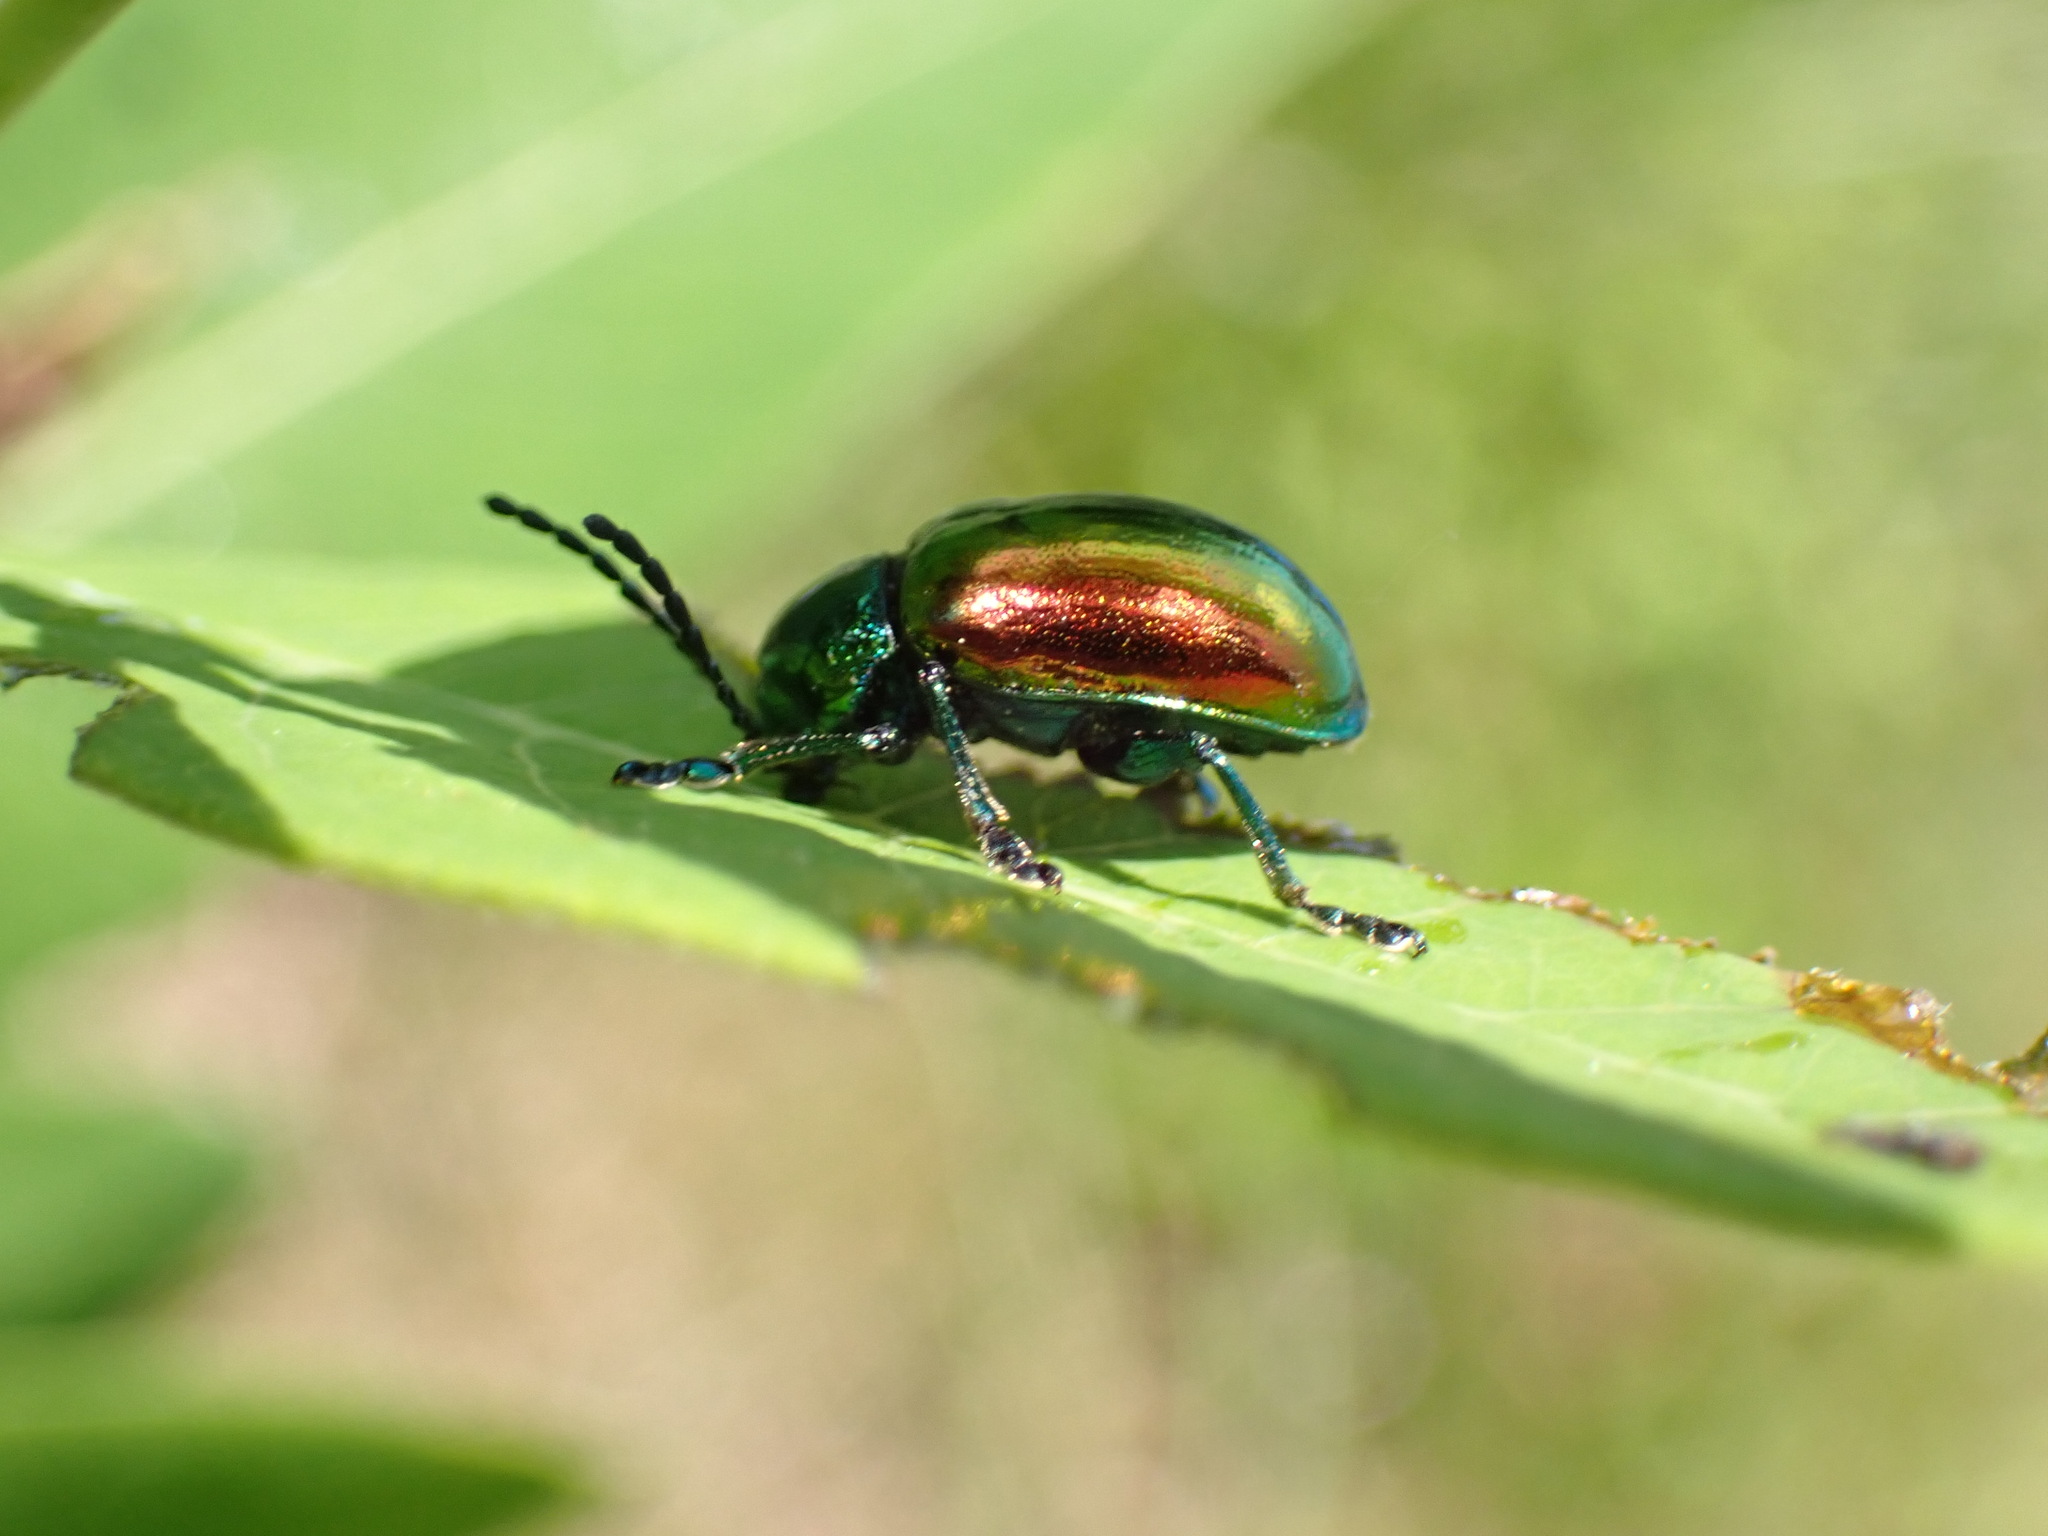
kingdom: Animalia
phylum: Arthropoda
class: Insecta
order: Coleoptera
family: Chrysomelidae
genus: Chrysochus
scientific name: Chrysochus auratus
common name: Dogbane leaf beetle
